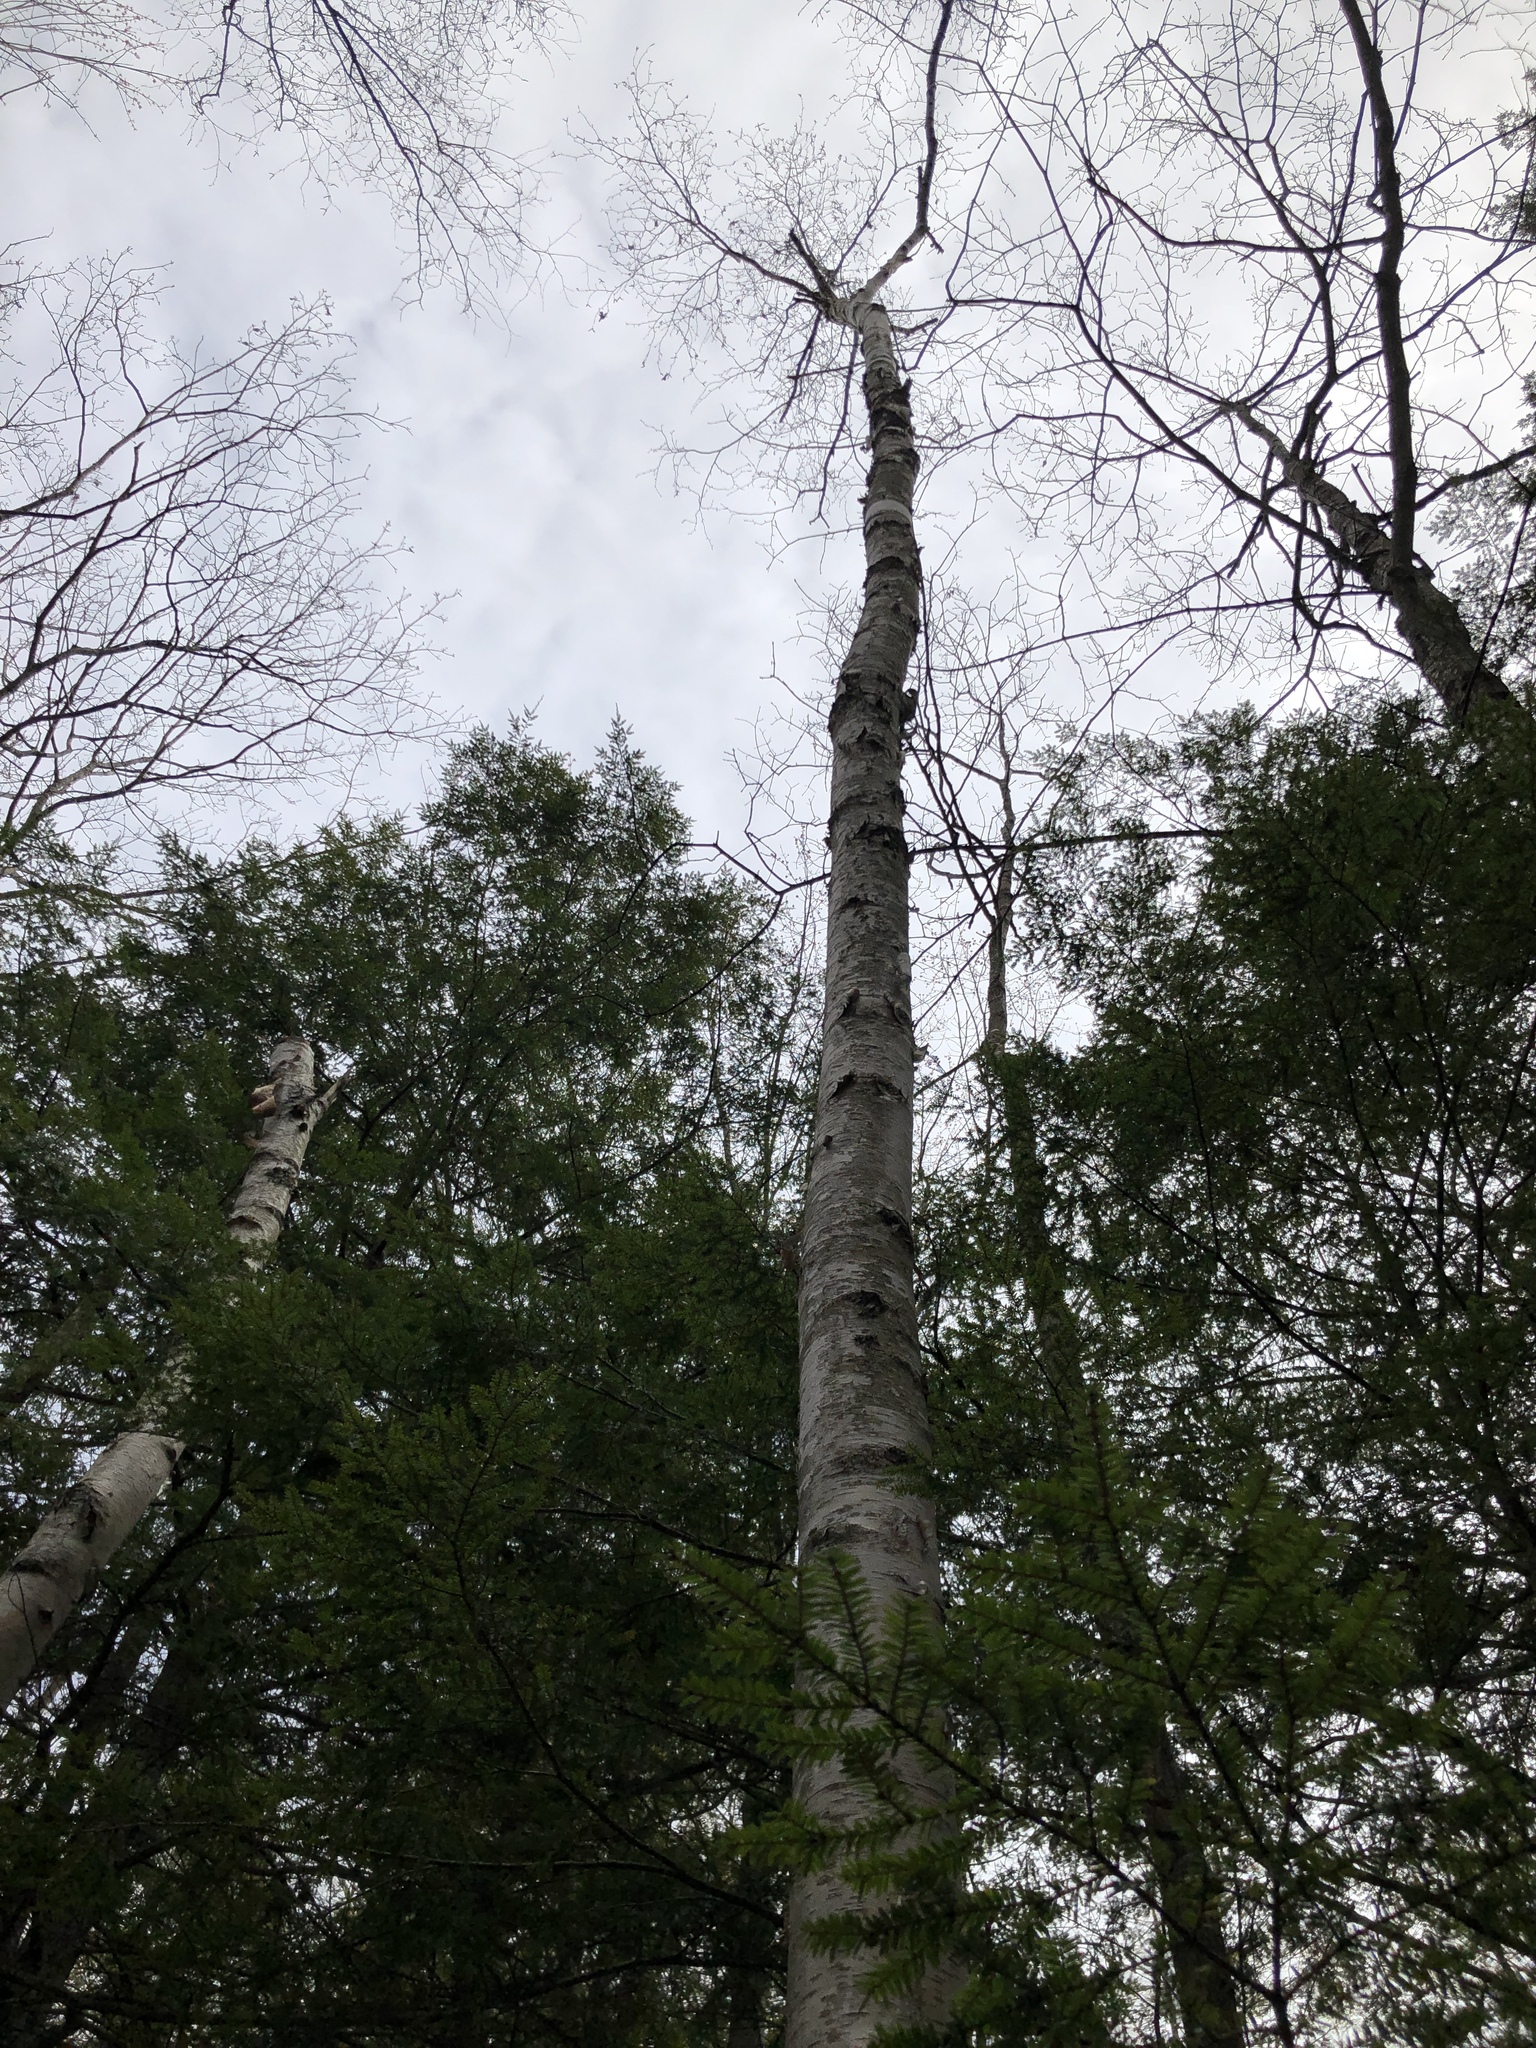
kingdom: Plantae
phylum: Tracheophyta
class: Magnoliopsida
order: Fagales
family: Betulaceae
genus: Betula
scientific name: Betula papyrifera
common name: Paper birch
